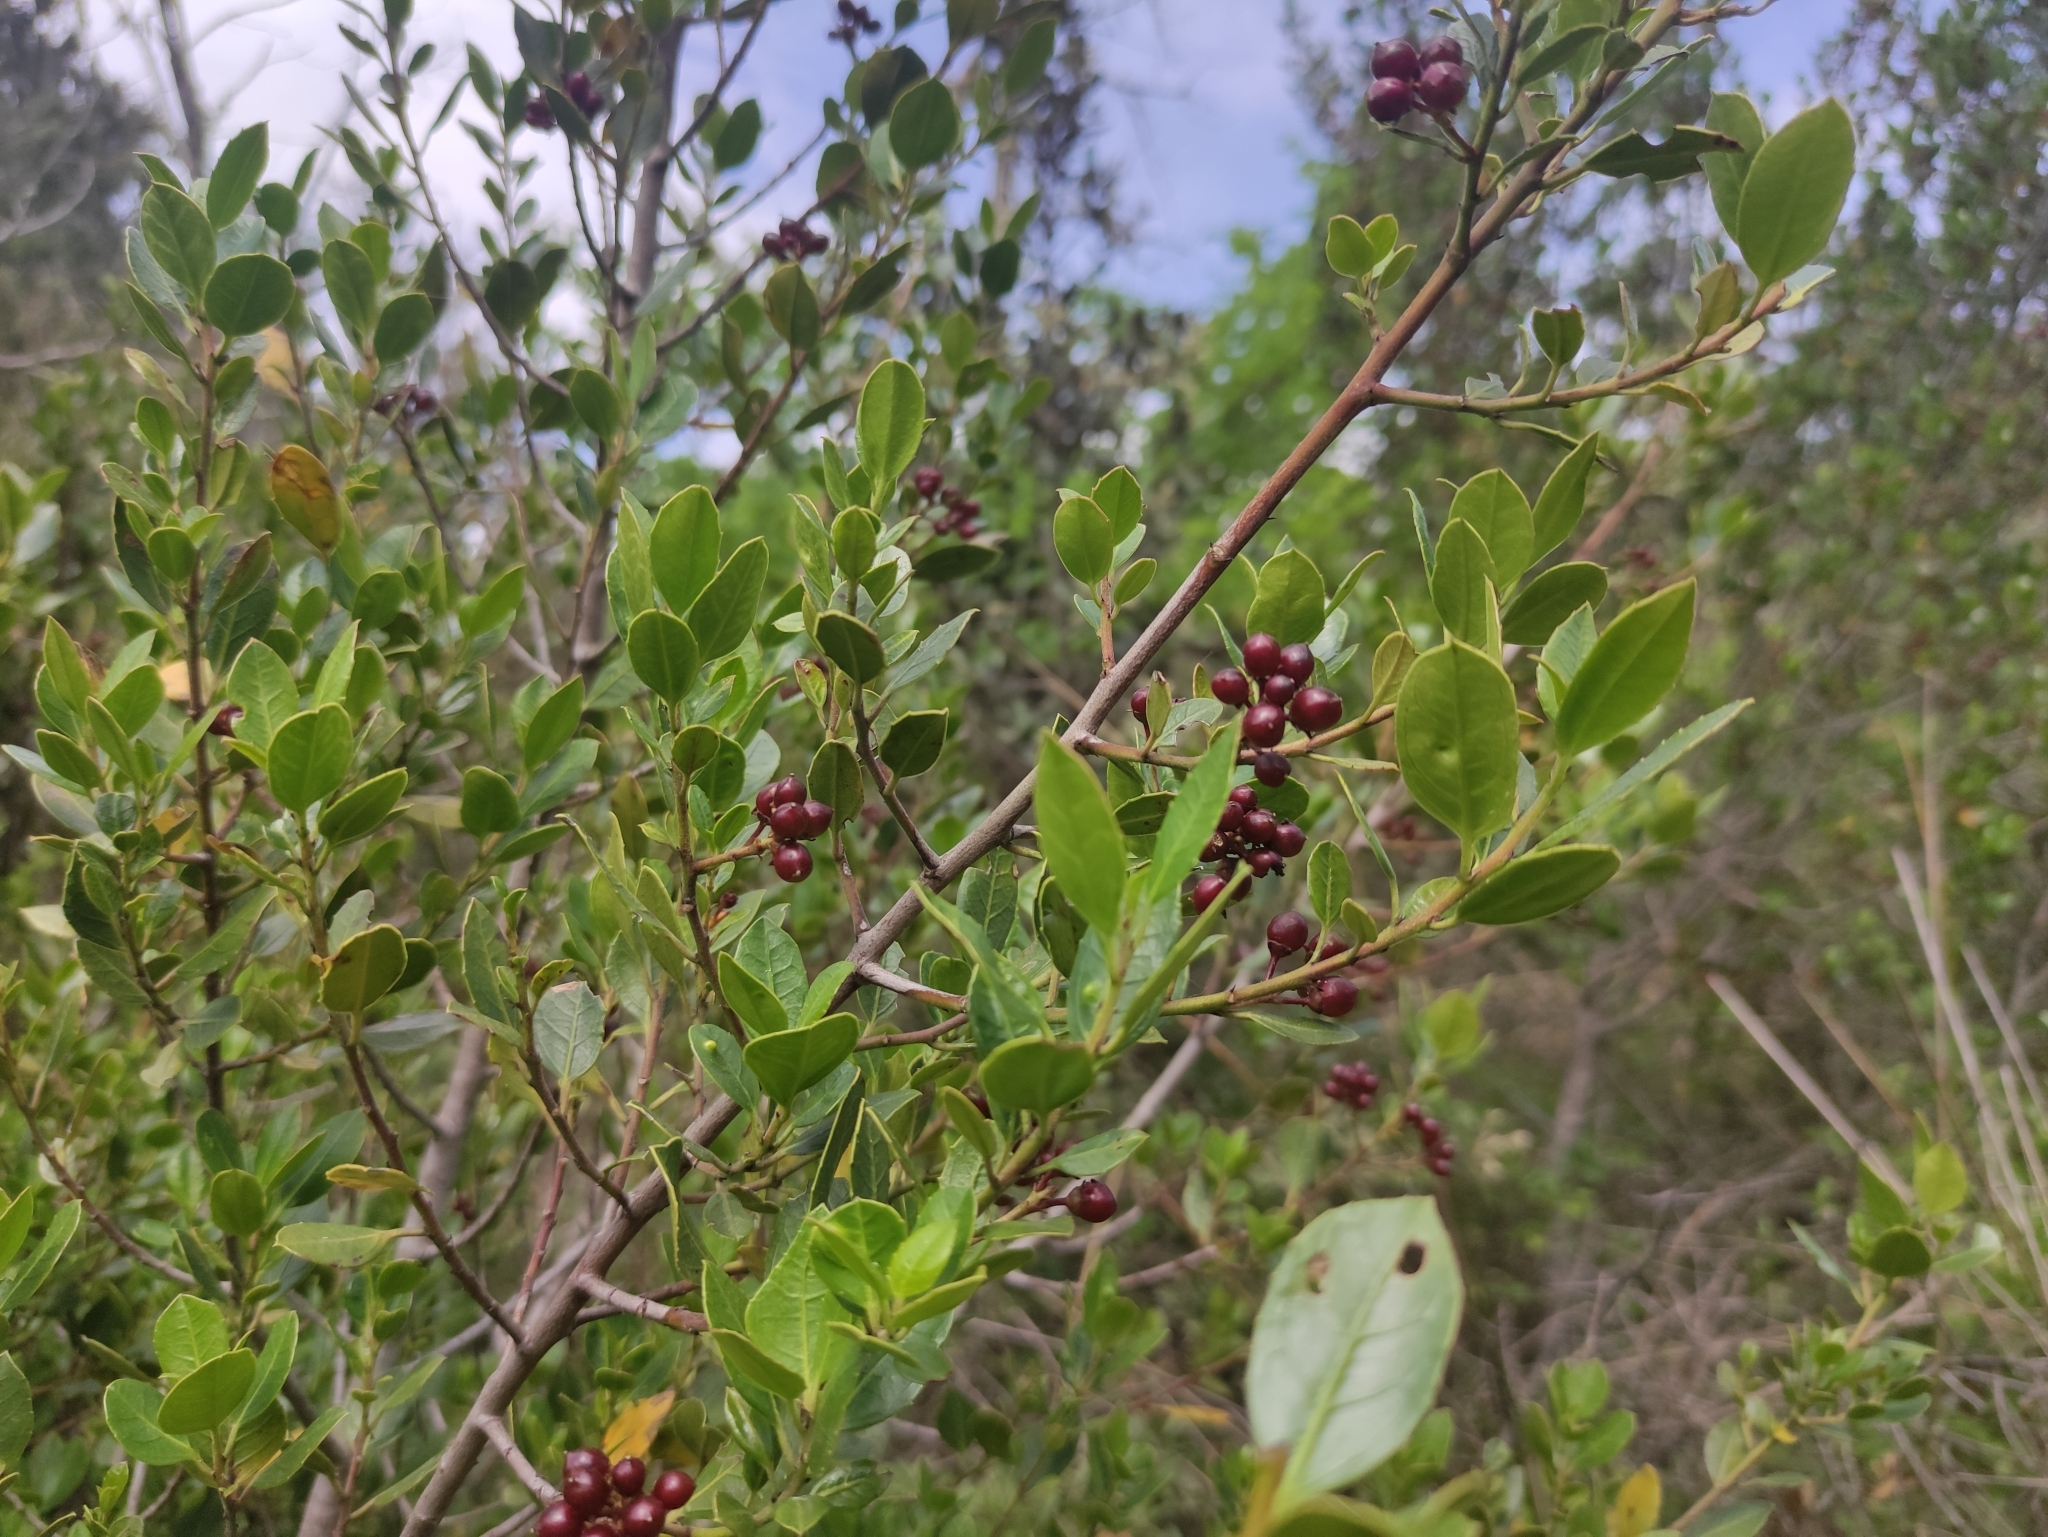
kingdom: Plantae
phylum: Tracheophyta
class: Magnoliopsida
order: Rosales
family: Rhamnaceae
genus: Rhamnus
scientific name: Rhamnus alaternus
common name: Mediterranean buckthorn
